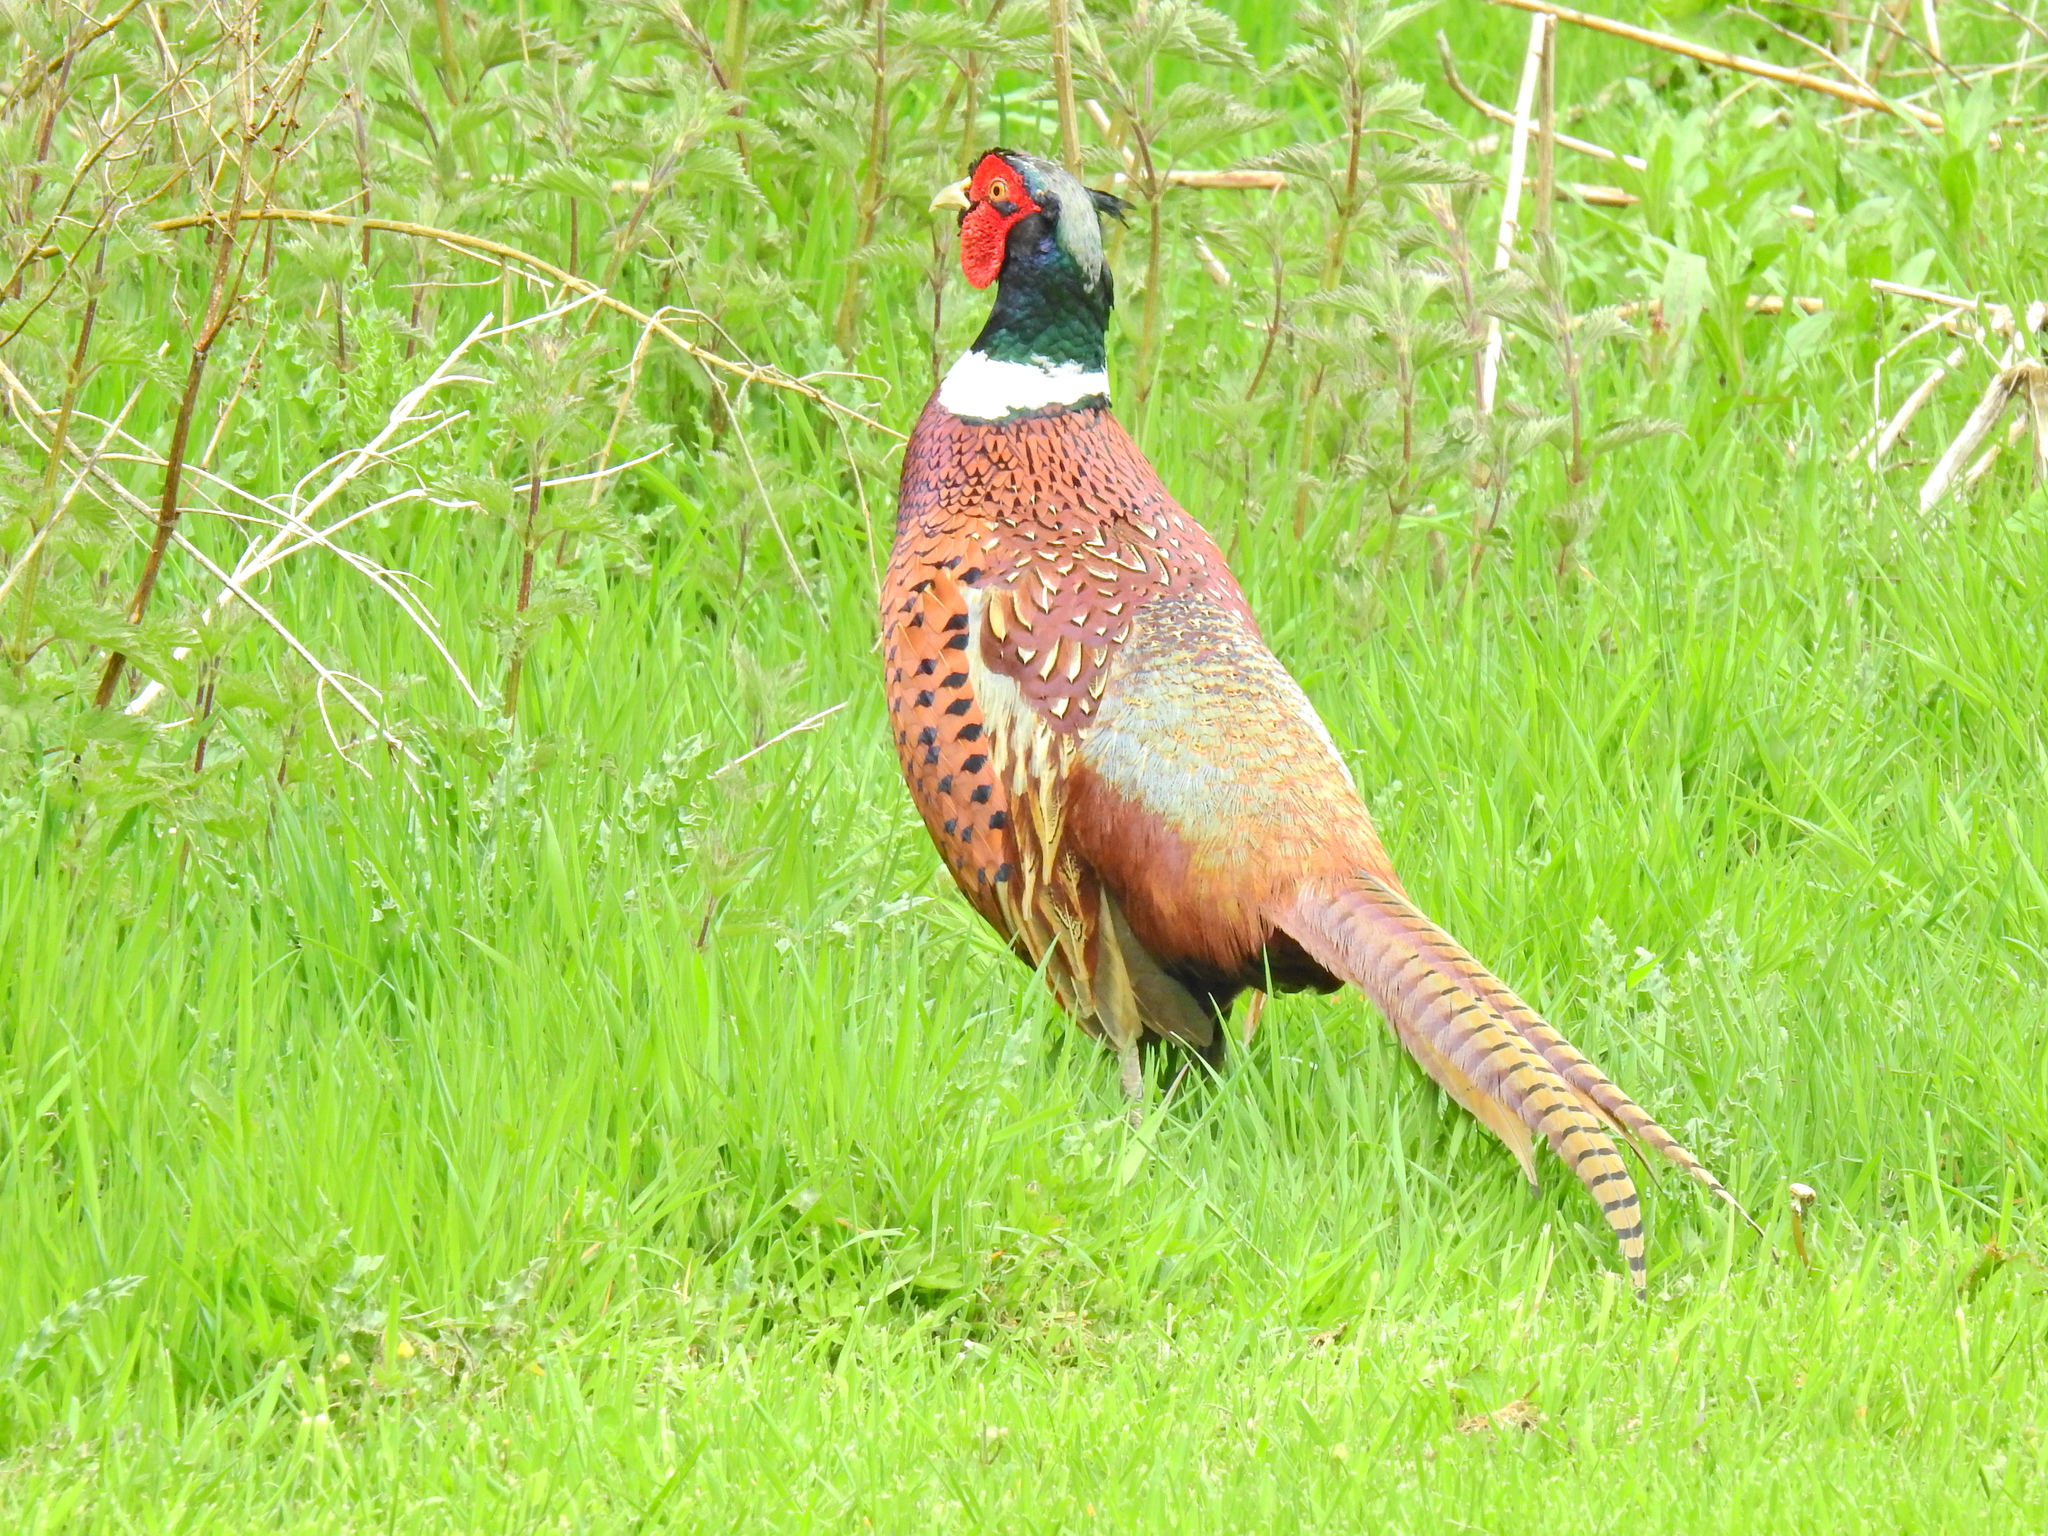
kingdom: Animalia
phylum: Chordata
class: Aves
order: Galliformes
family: Phasianidae
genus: Phasianus
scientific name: Phasianus colchicus
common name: Common pheasant
